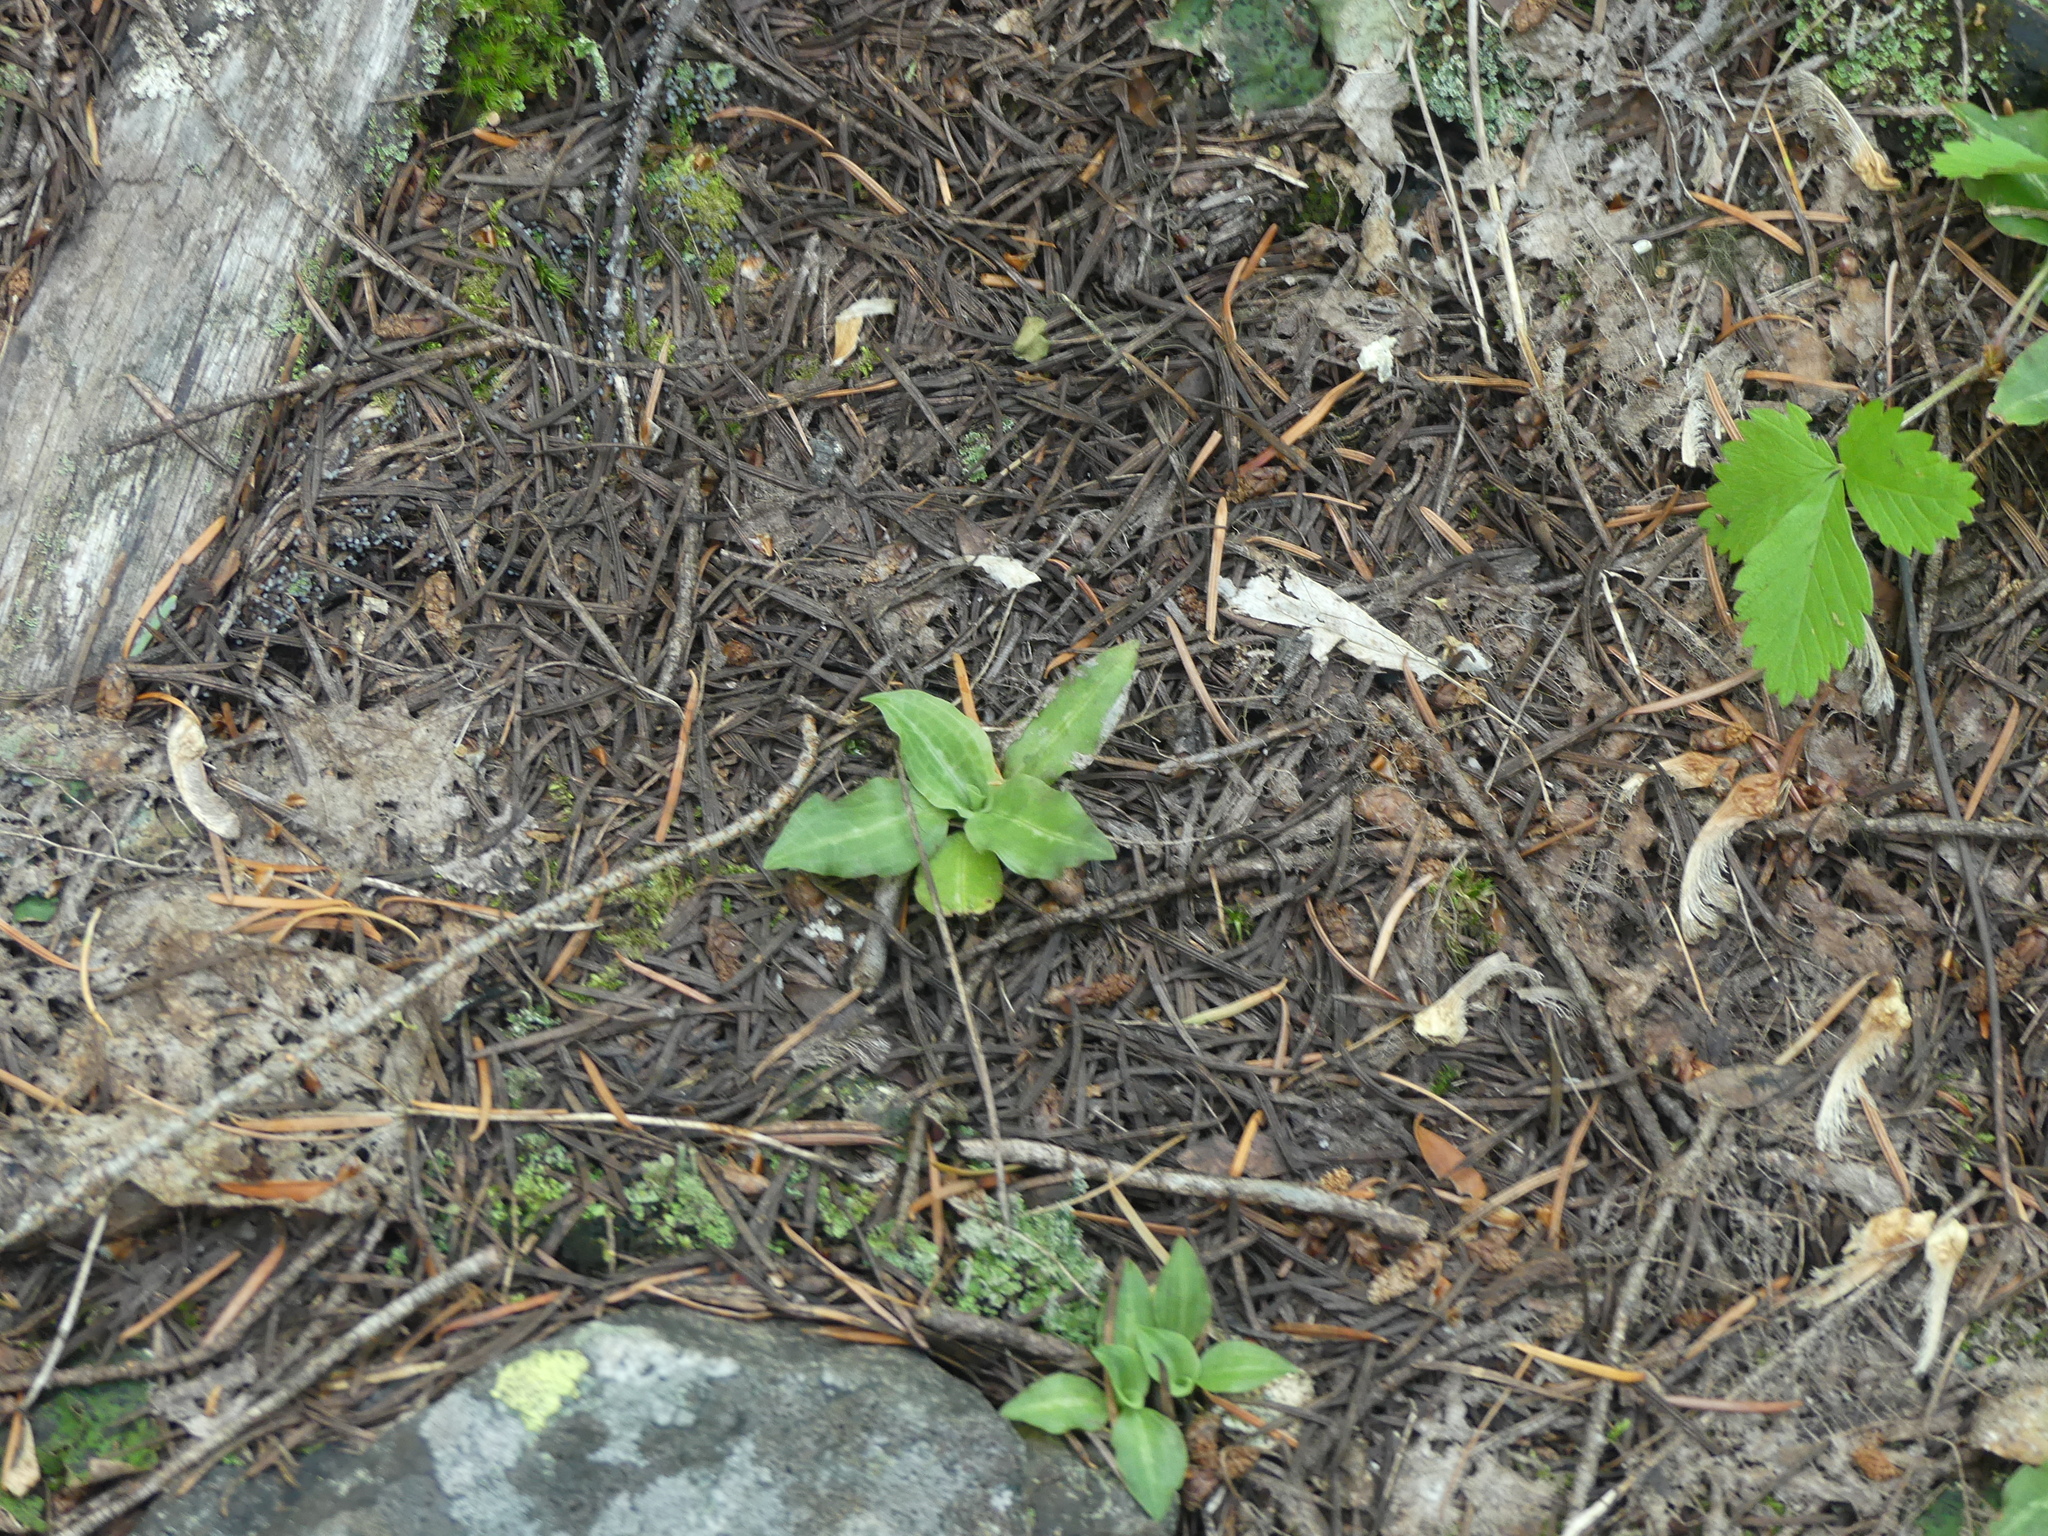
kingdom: Plantae
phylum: Tracheophyta
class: Liliopsida
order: Asparagales
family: Orchidaceae
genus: Goodyera
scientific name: Goodyera oblongifolia
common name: Giant rattlesnake-plantain
